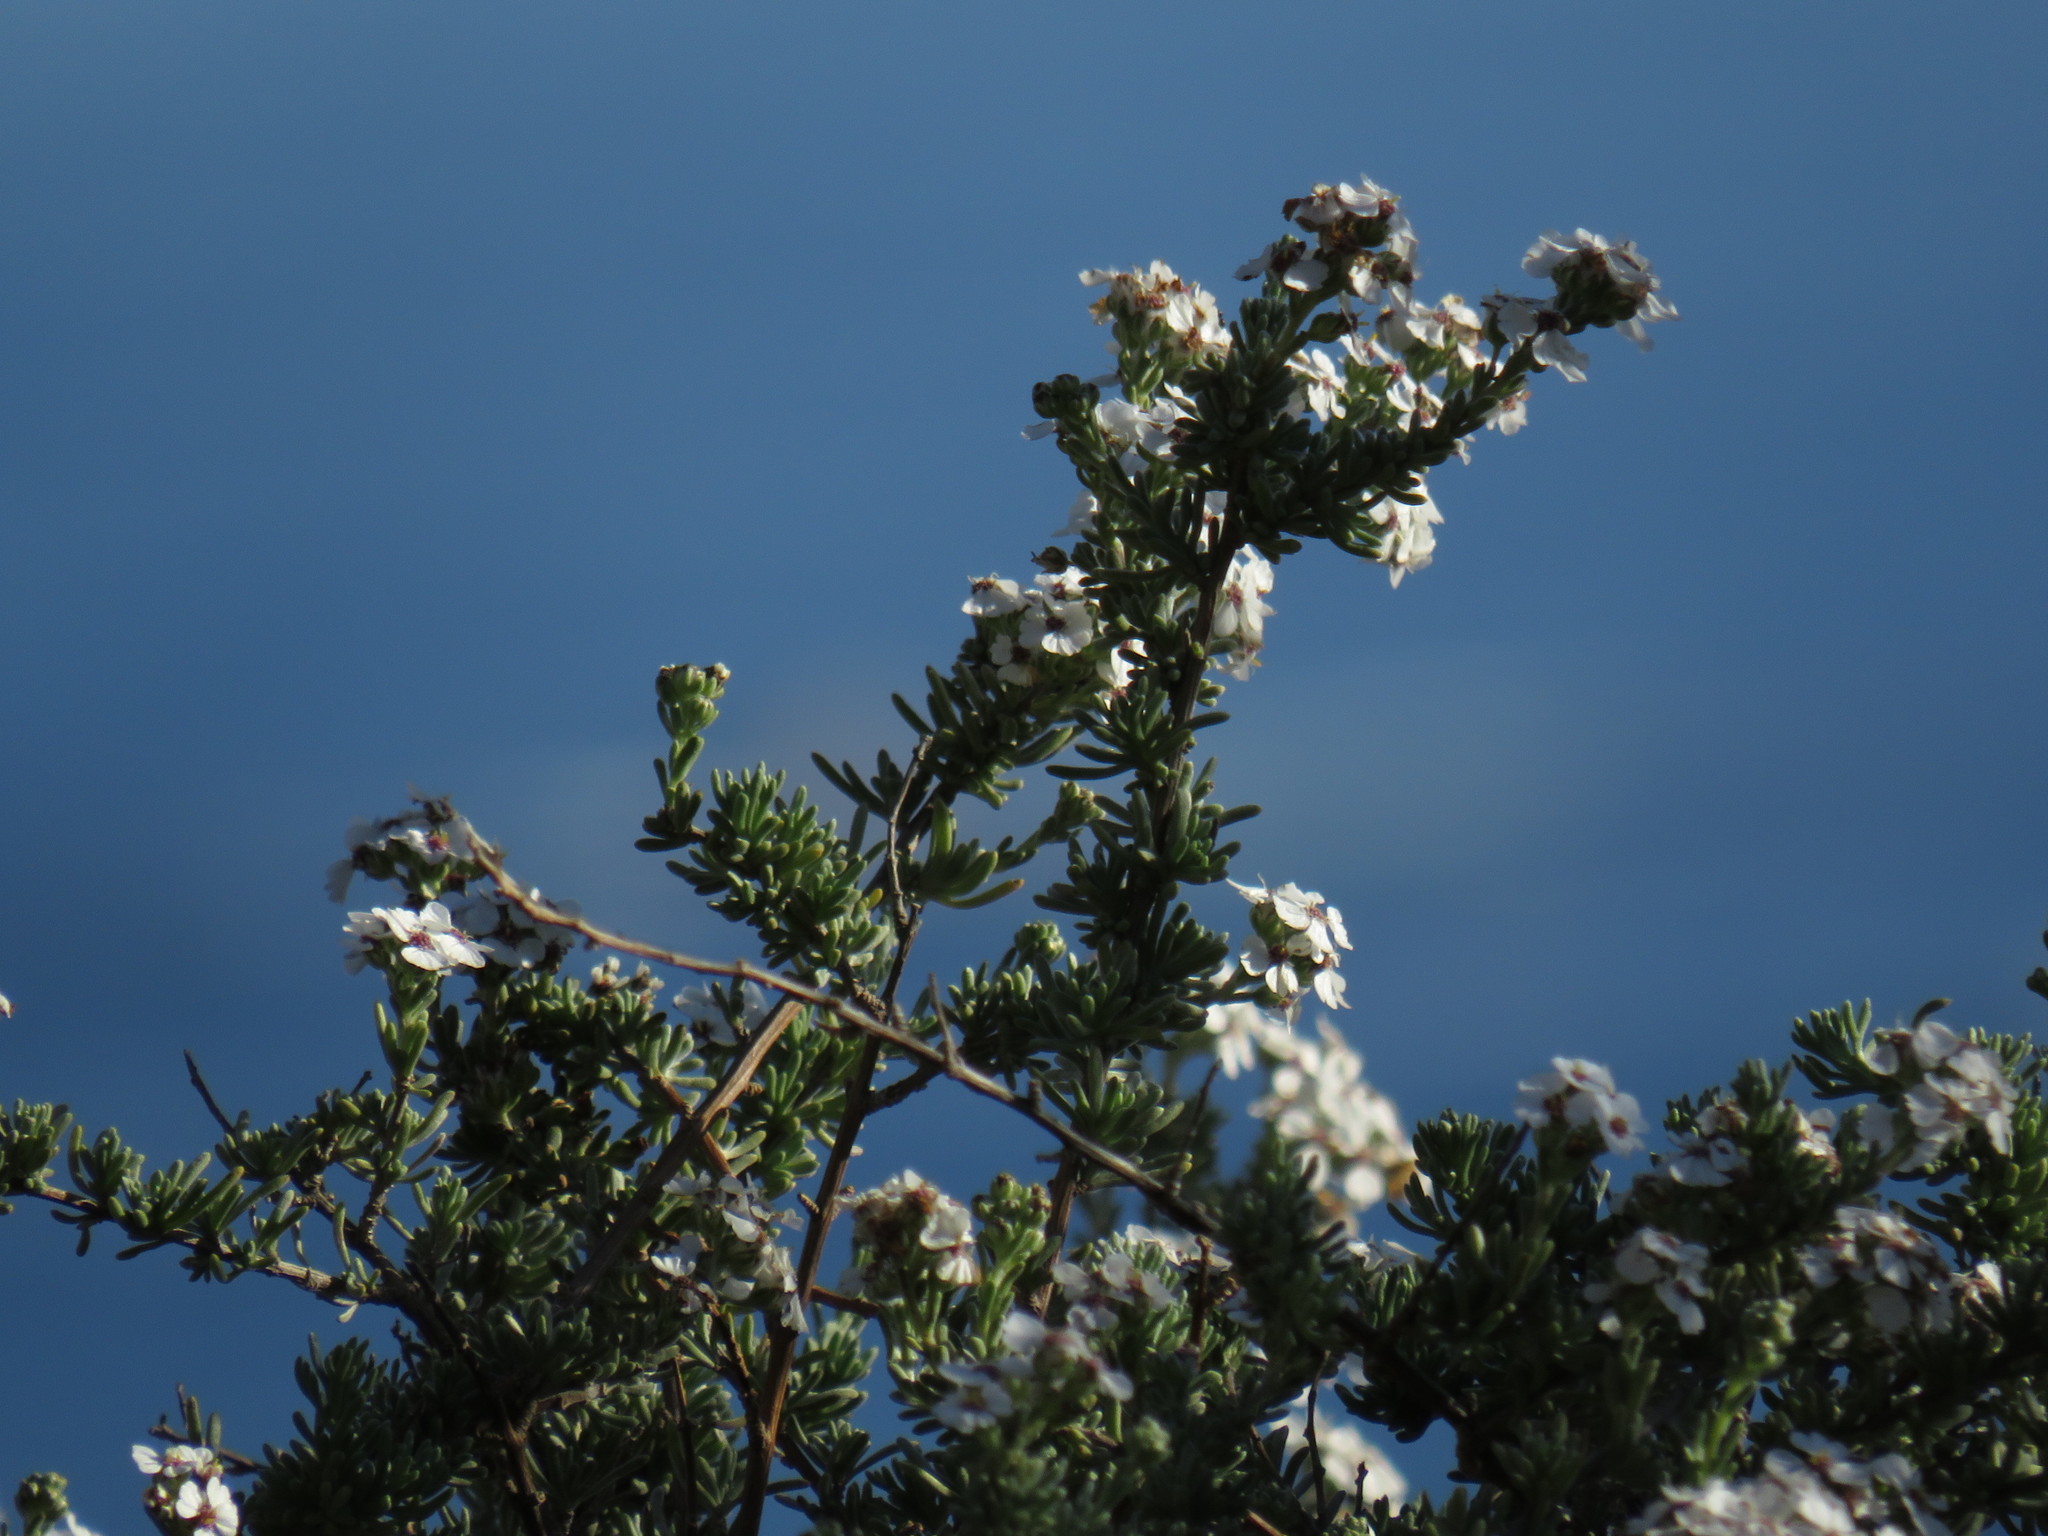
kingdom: Plantae
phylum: Tracheophyta
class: Magnoliopsida
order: Asterales
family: Asteraceae
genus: Eriocephalus
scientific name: Eriocephalus africanus
